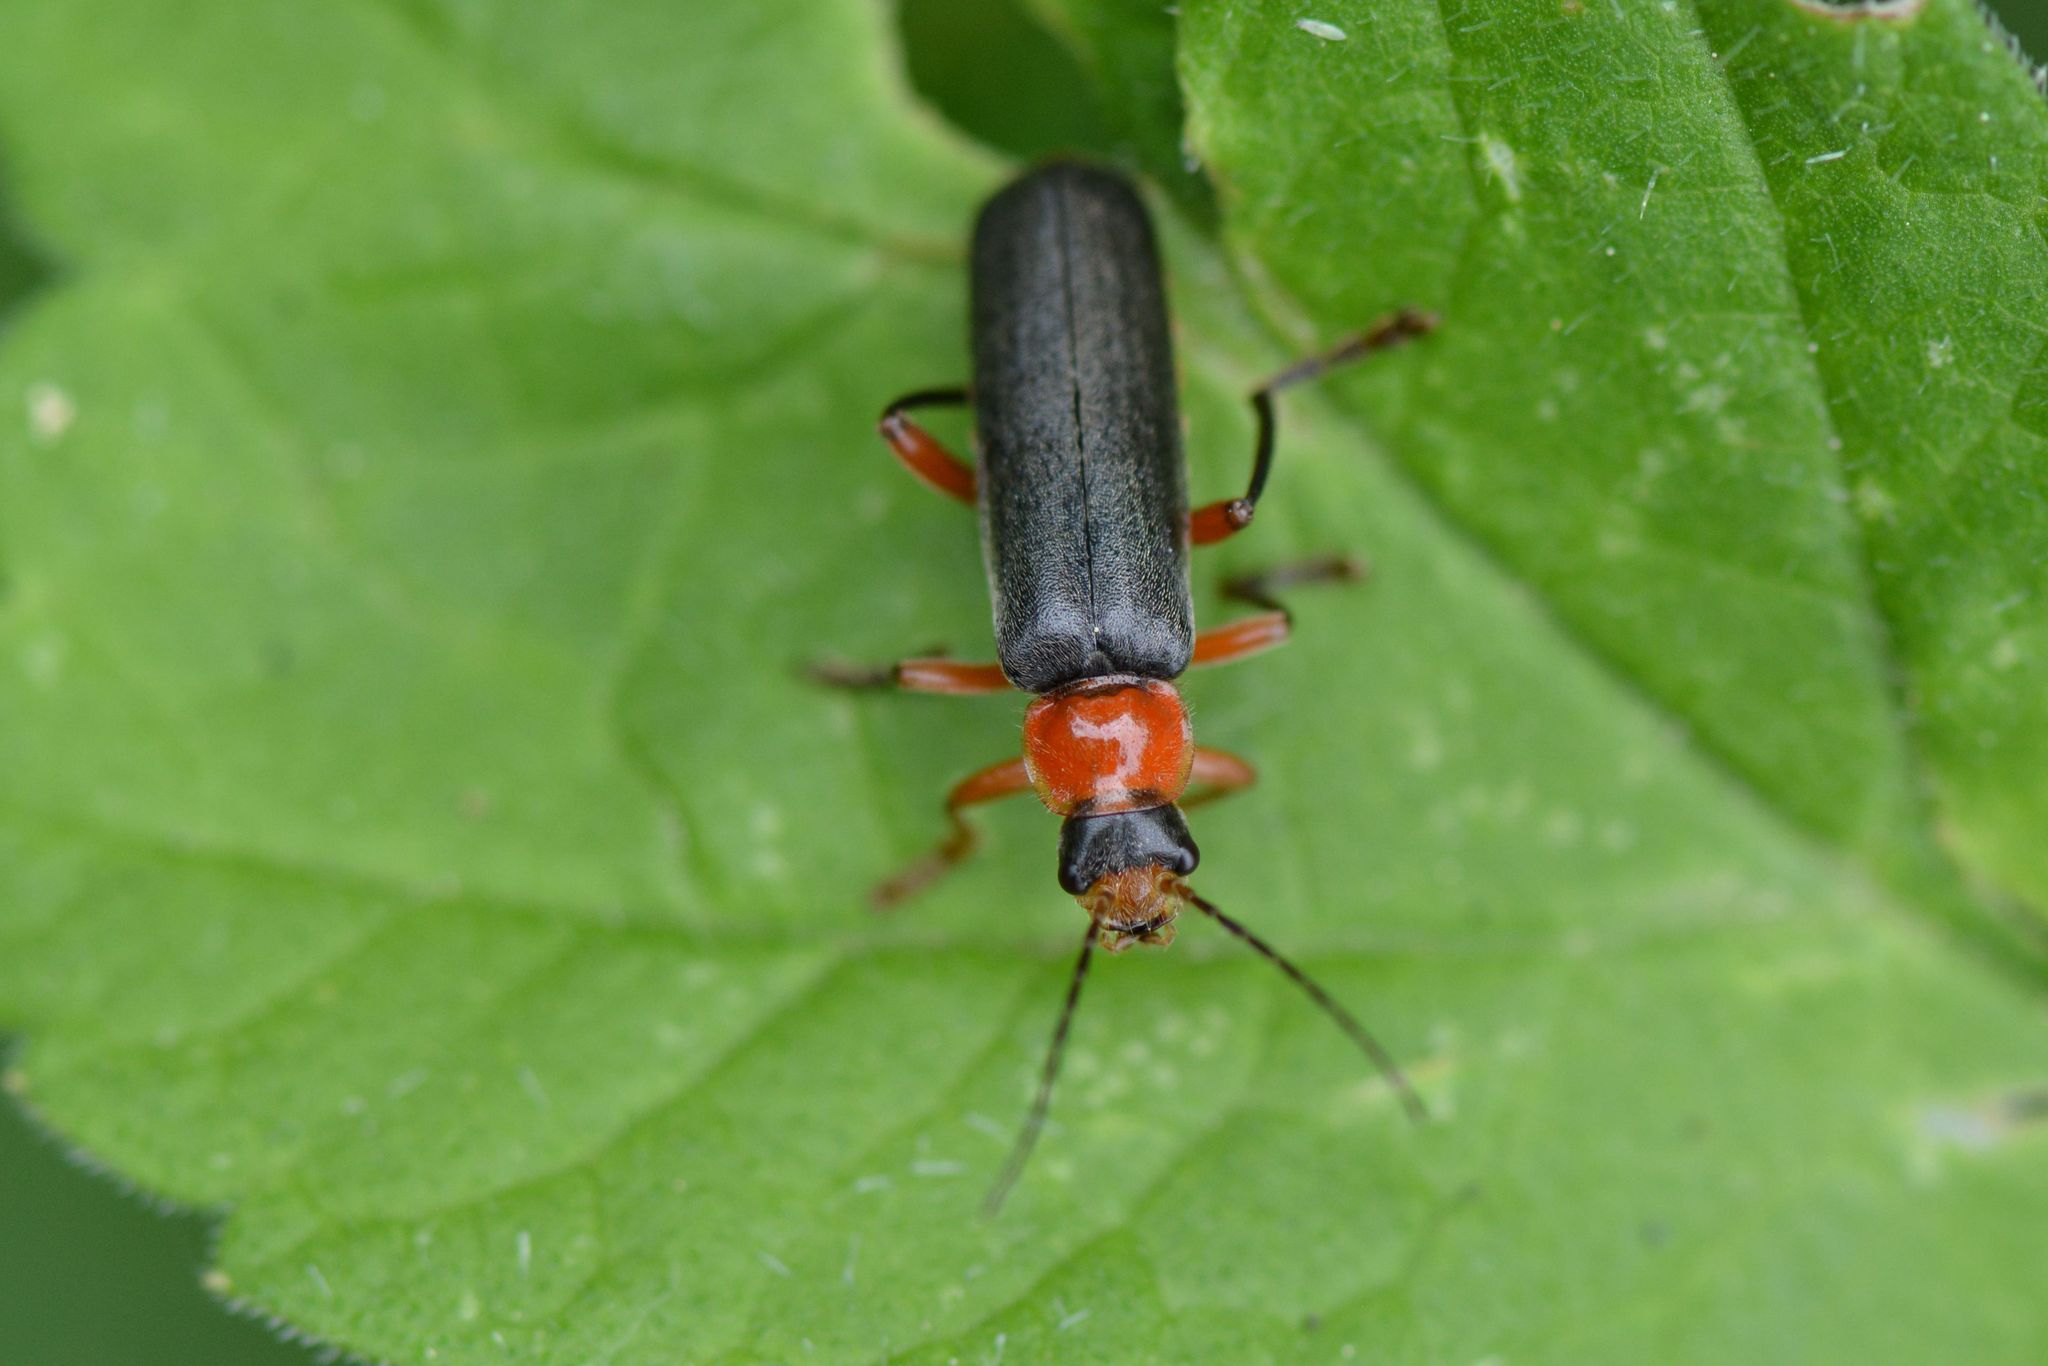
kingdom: Animalia
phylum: Arthropoda
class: Insecta
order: Coleoptera
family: Cantharidae
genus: Cantharis
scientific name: Cantharis pellucida
